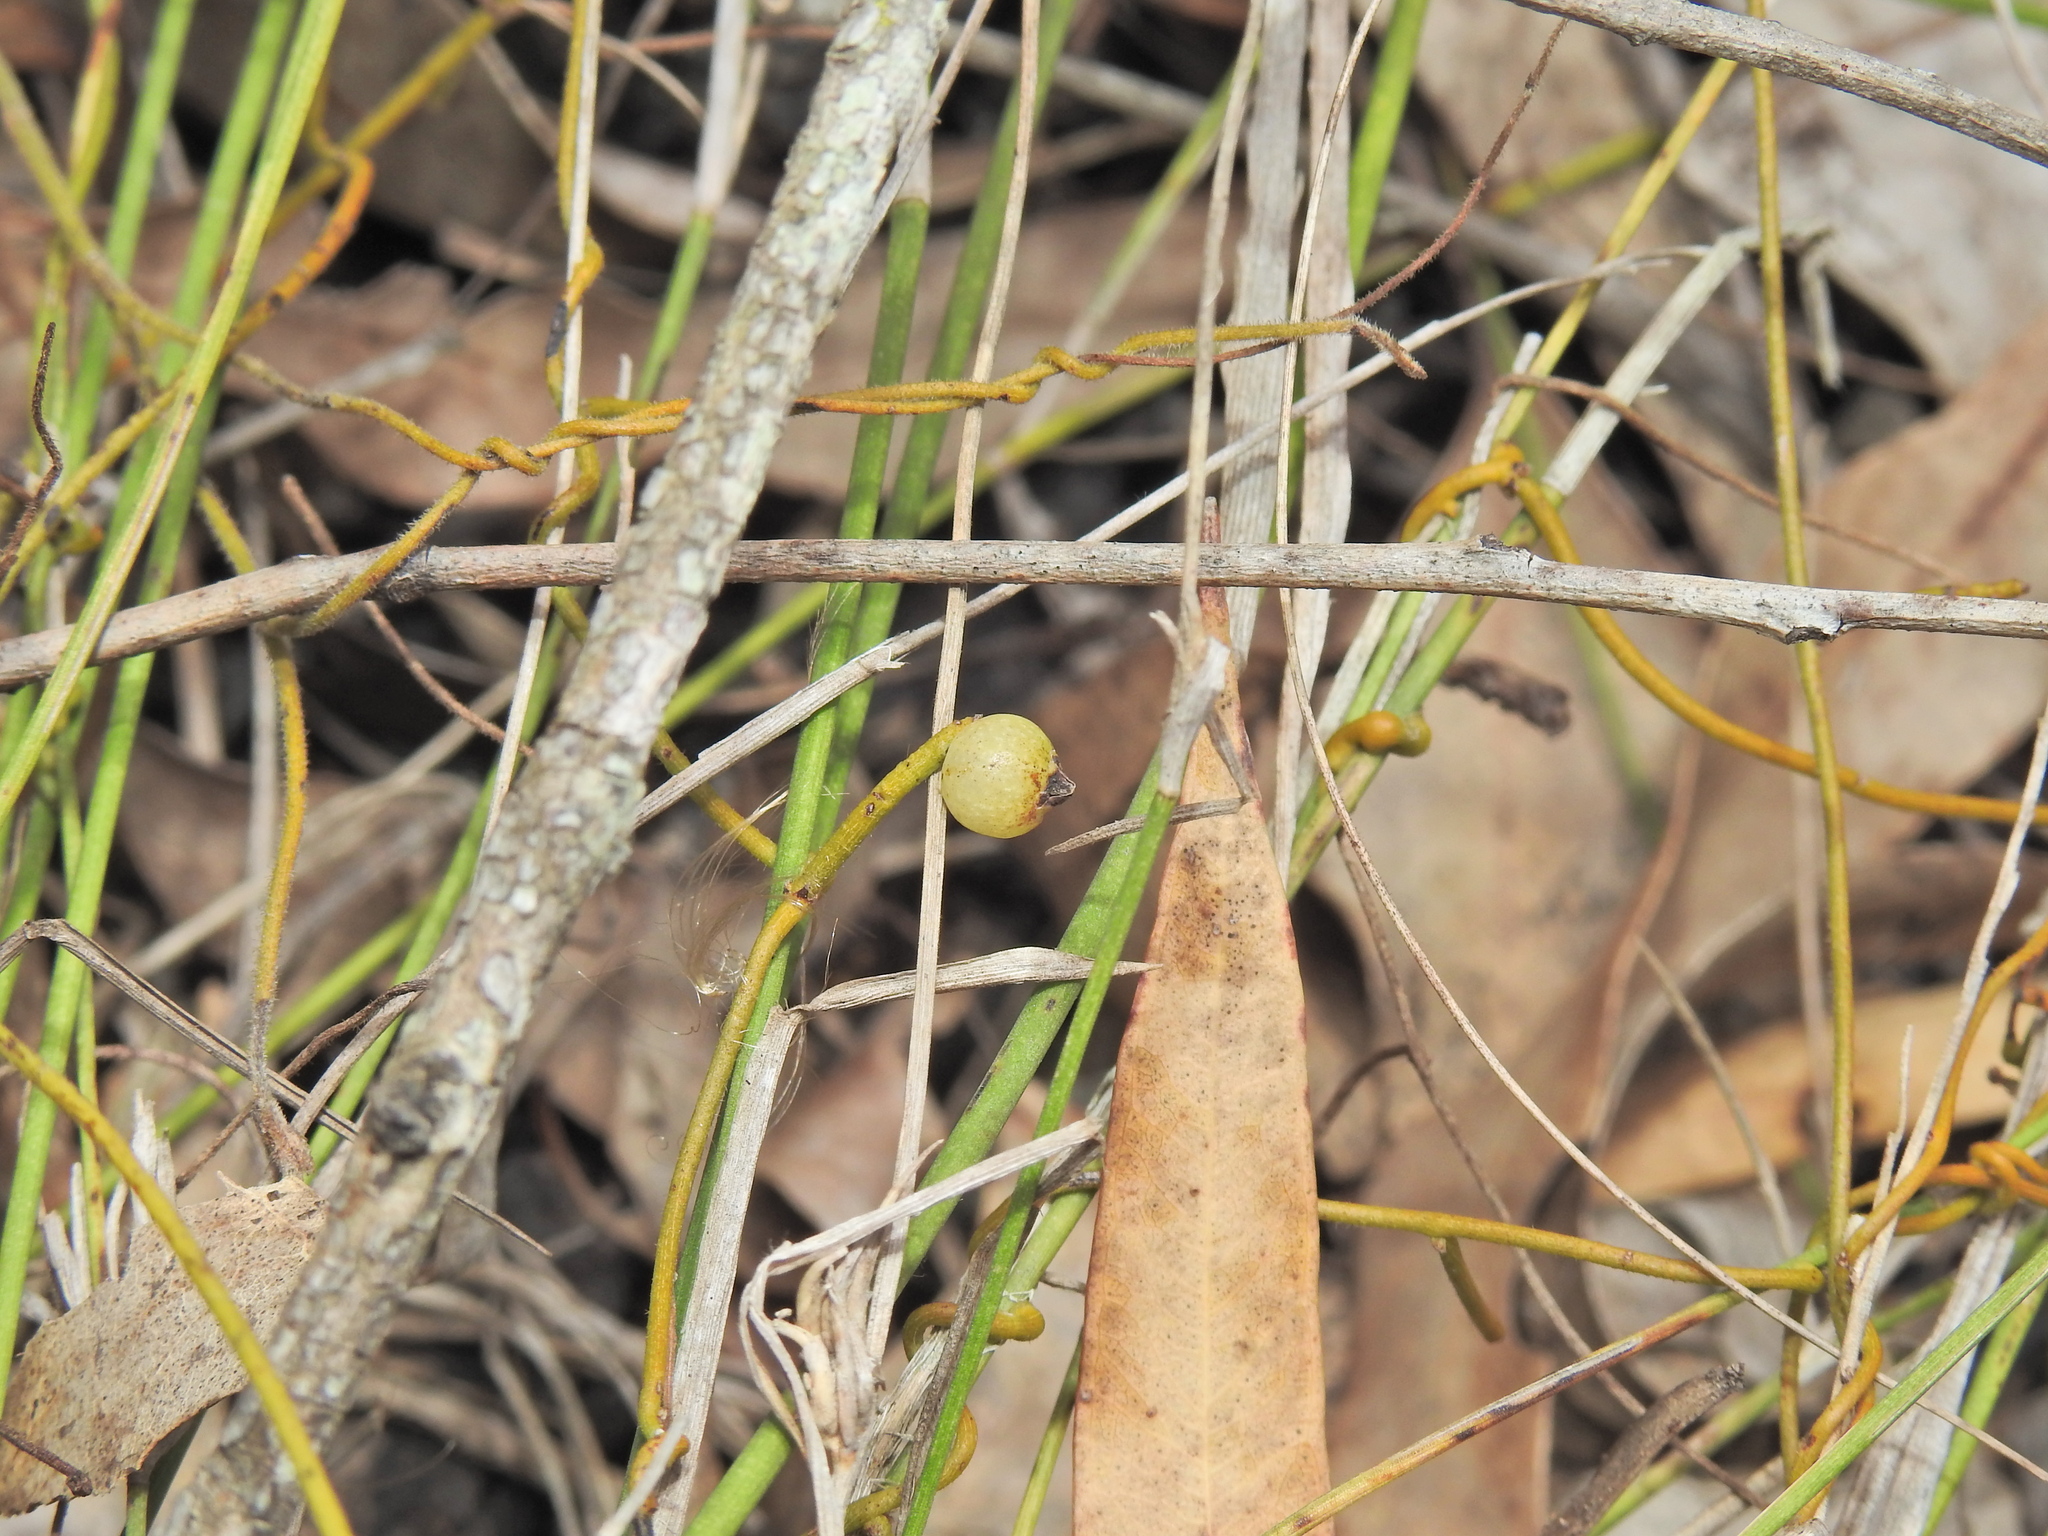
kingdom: Plantae
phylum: Tracheophyta
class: Magnoliopsida
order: Laurales
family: Lauraceae
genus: Cassytha
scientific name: Cassytha filiformis
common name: Dodder-laurel
